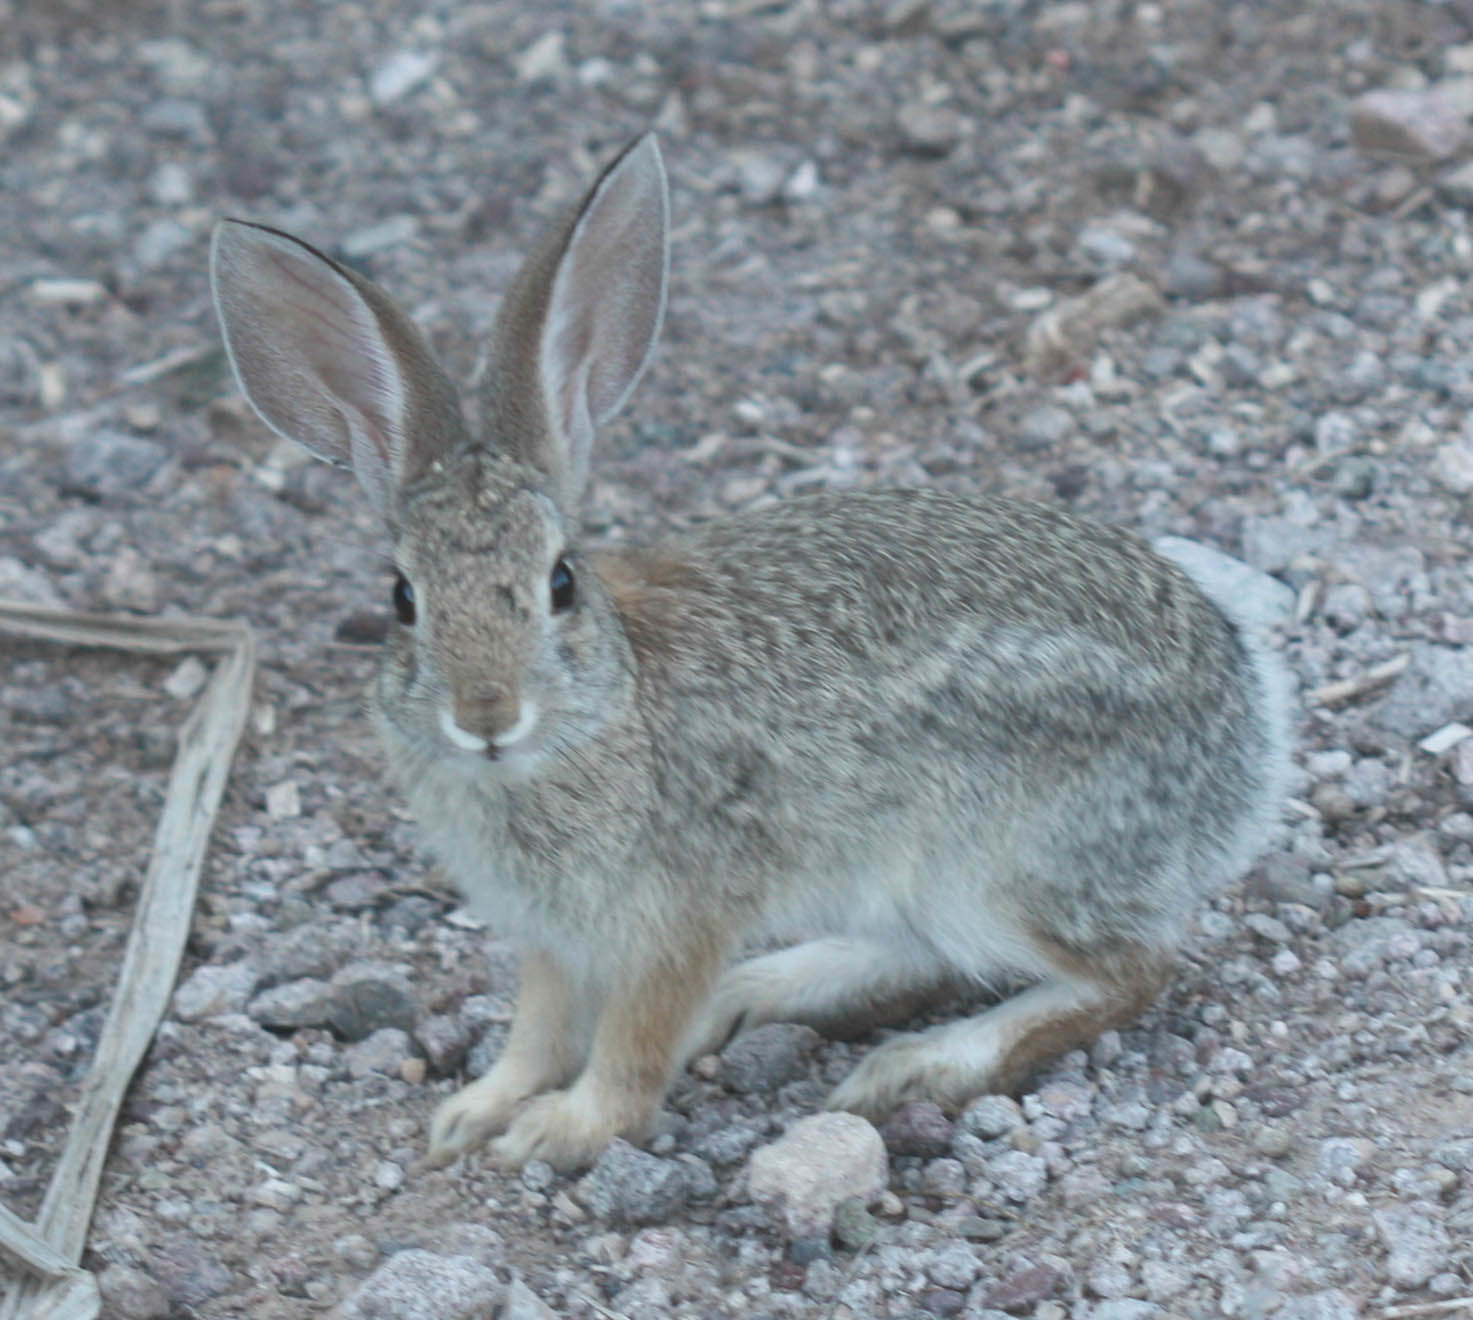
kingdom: Animalia
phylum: Chordata
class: Mammalia
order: Lagomorpha
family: Leporidae
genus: Sylvilagus
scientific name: Sylvilagus audubonii
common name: Desert cottontail
